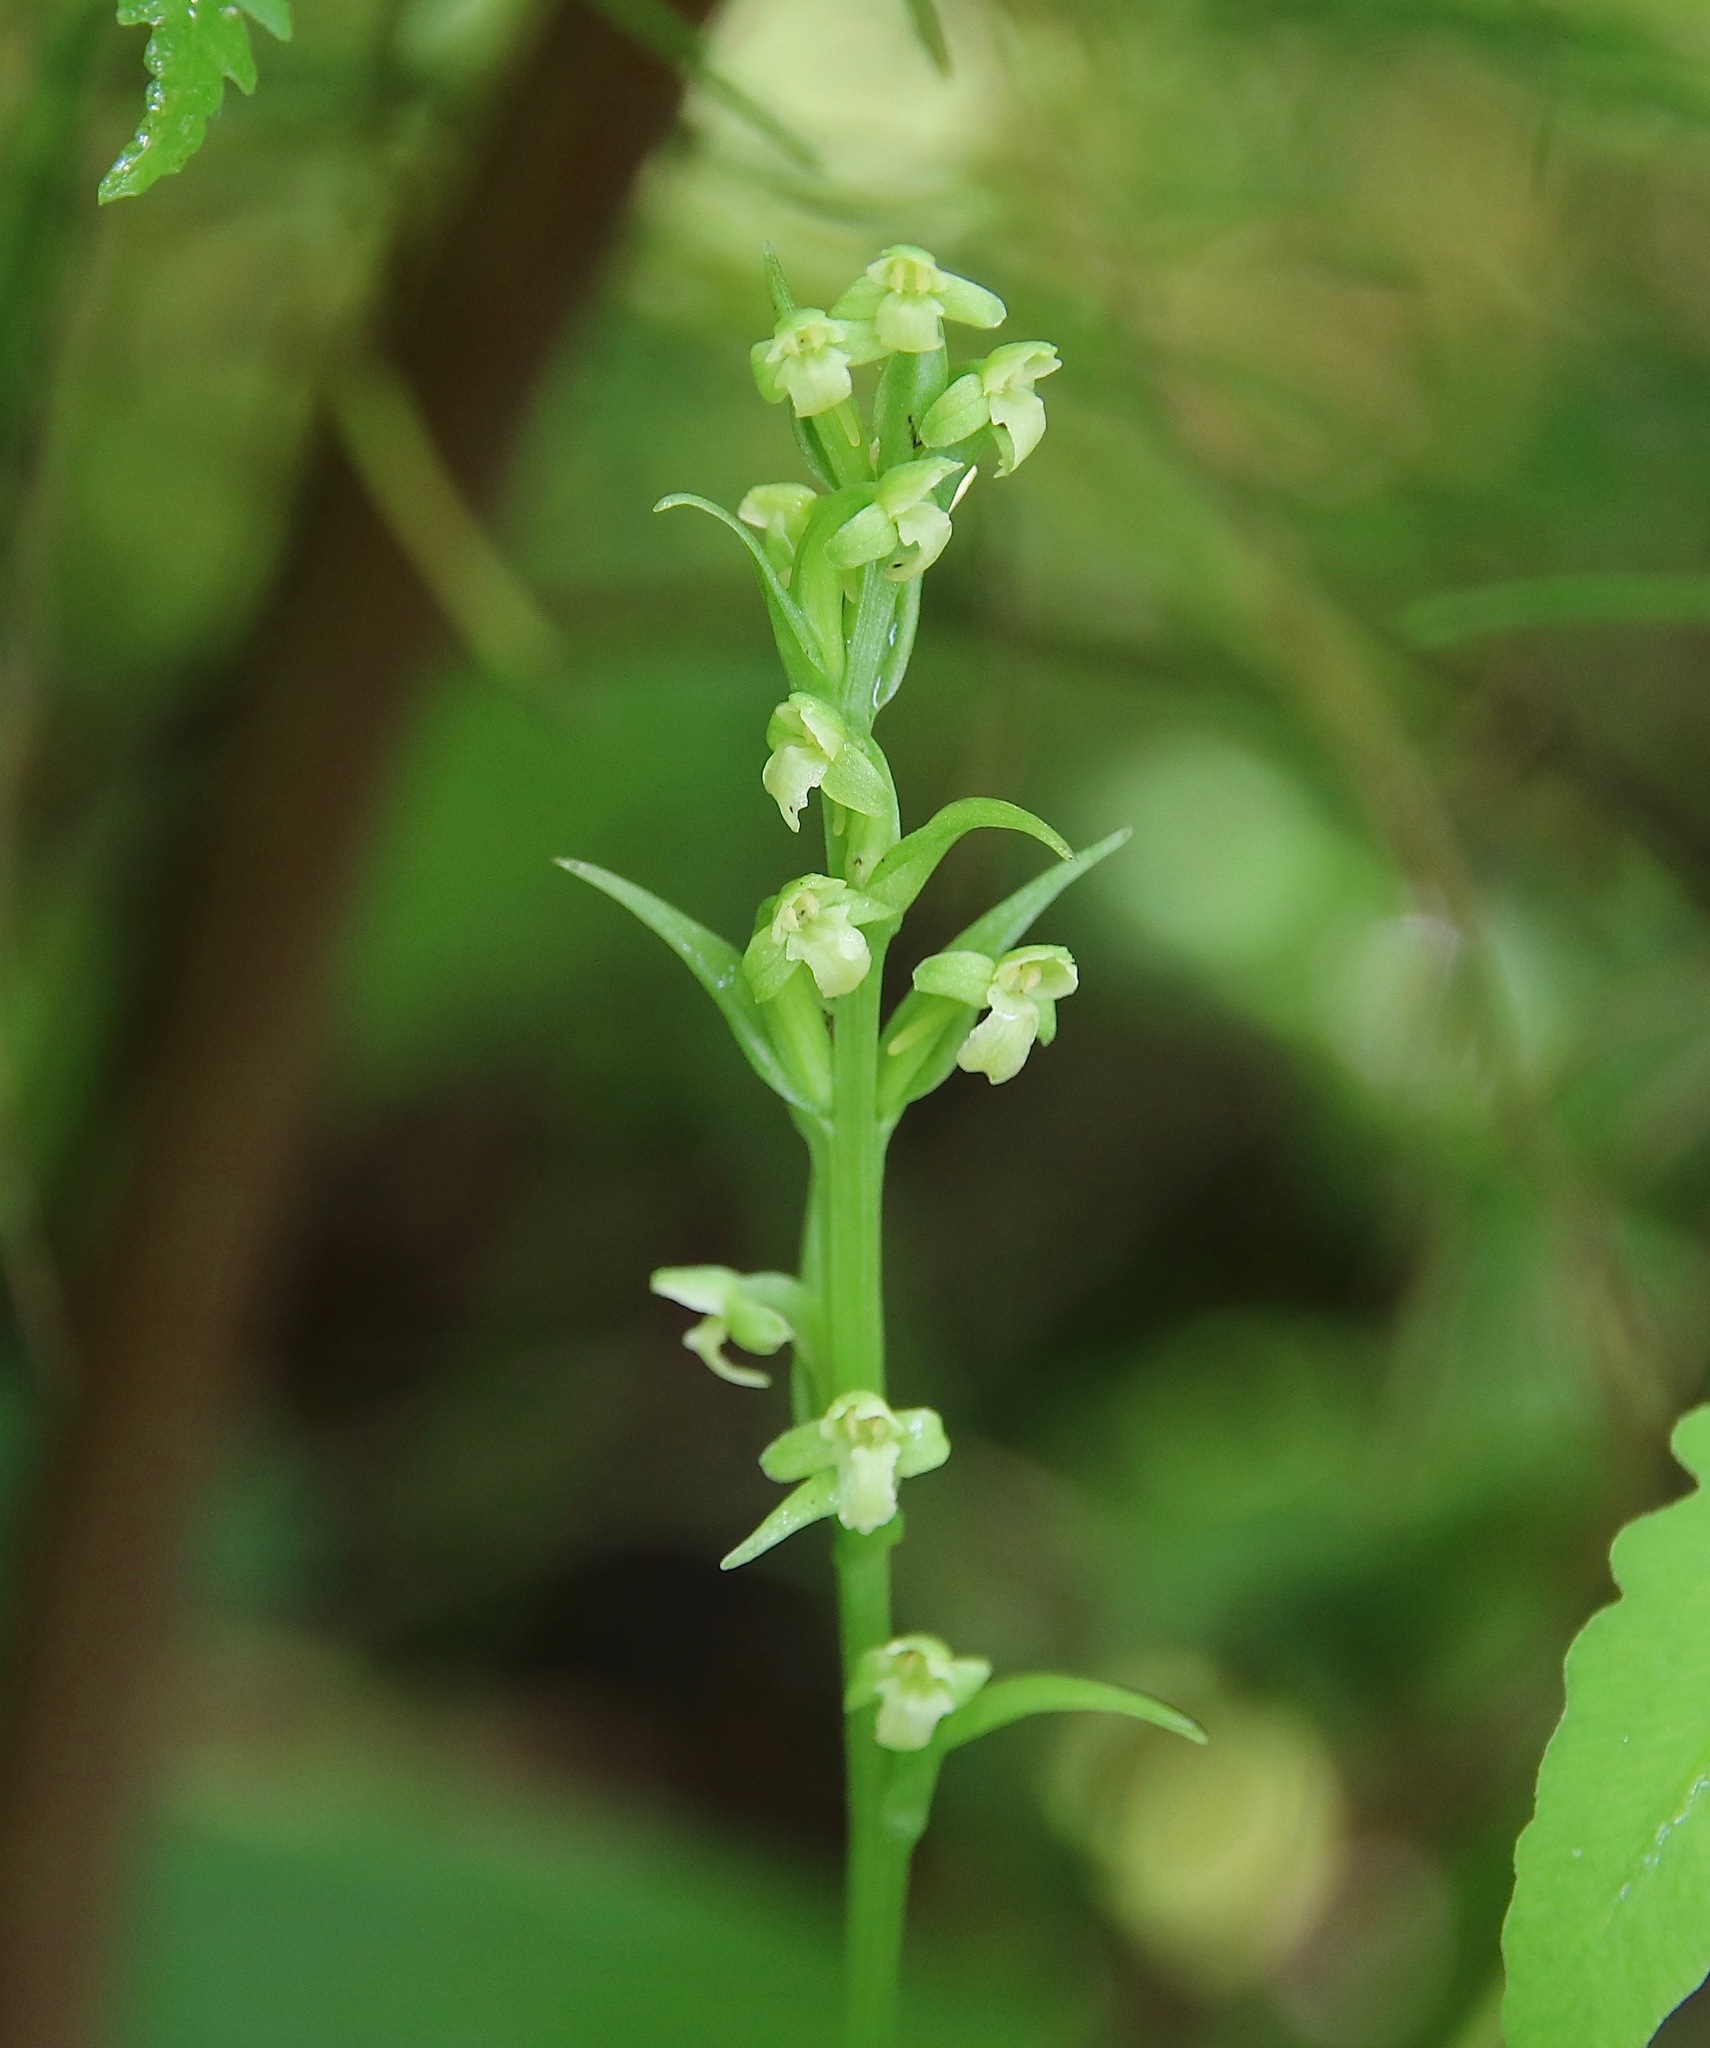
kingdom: Plantae
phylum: Tracheophyta
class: Liliopsida
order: Asparagales
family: Orchidaceae
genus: Platanthera
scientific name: Platanthera flava
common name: Gypsy-spikes
